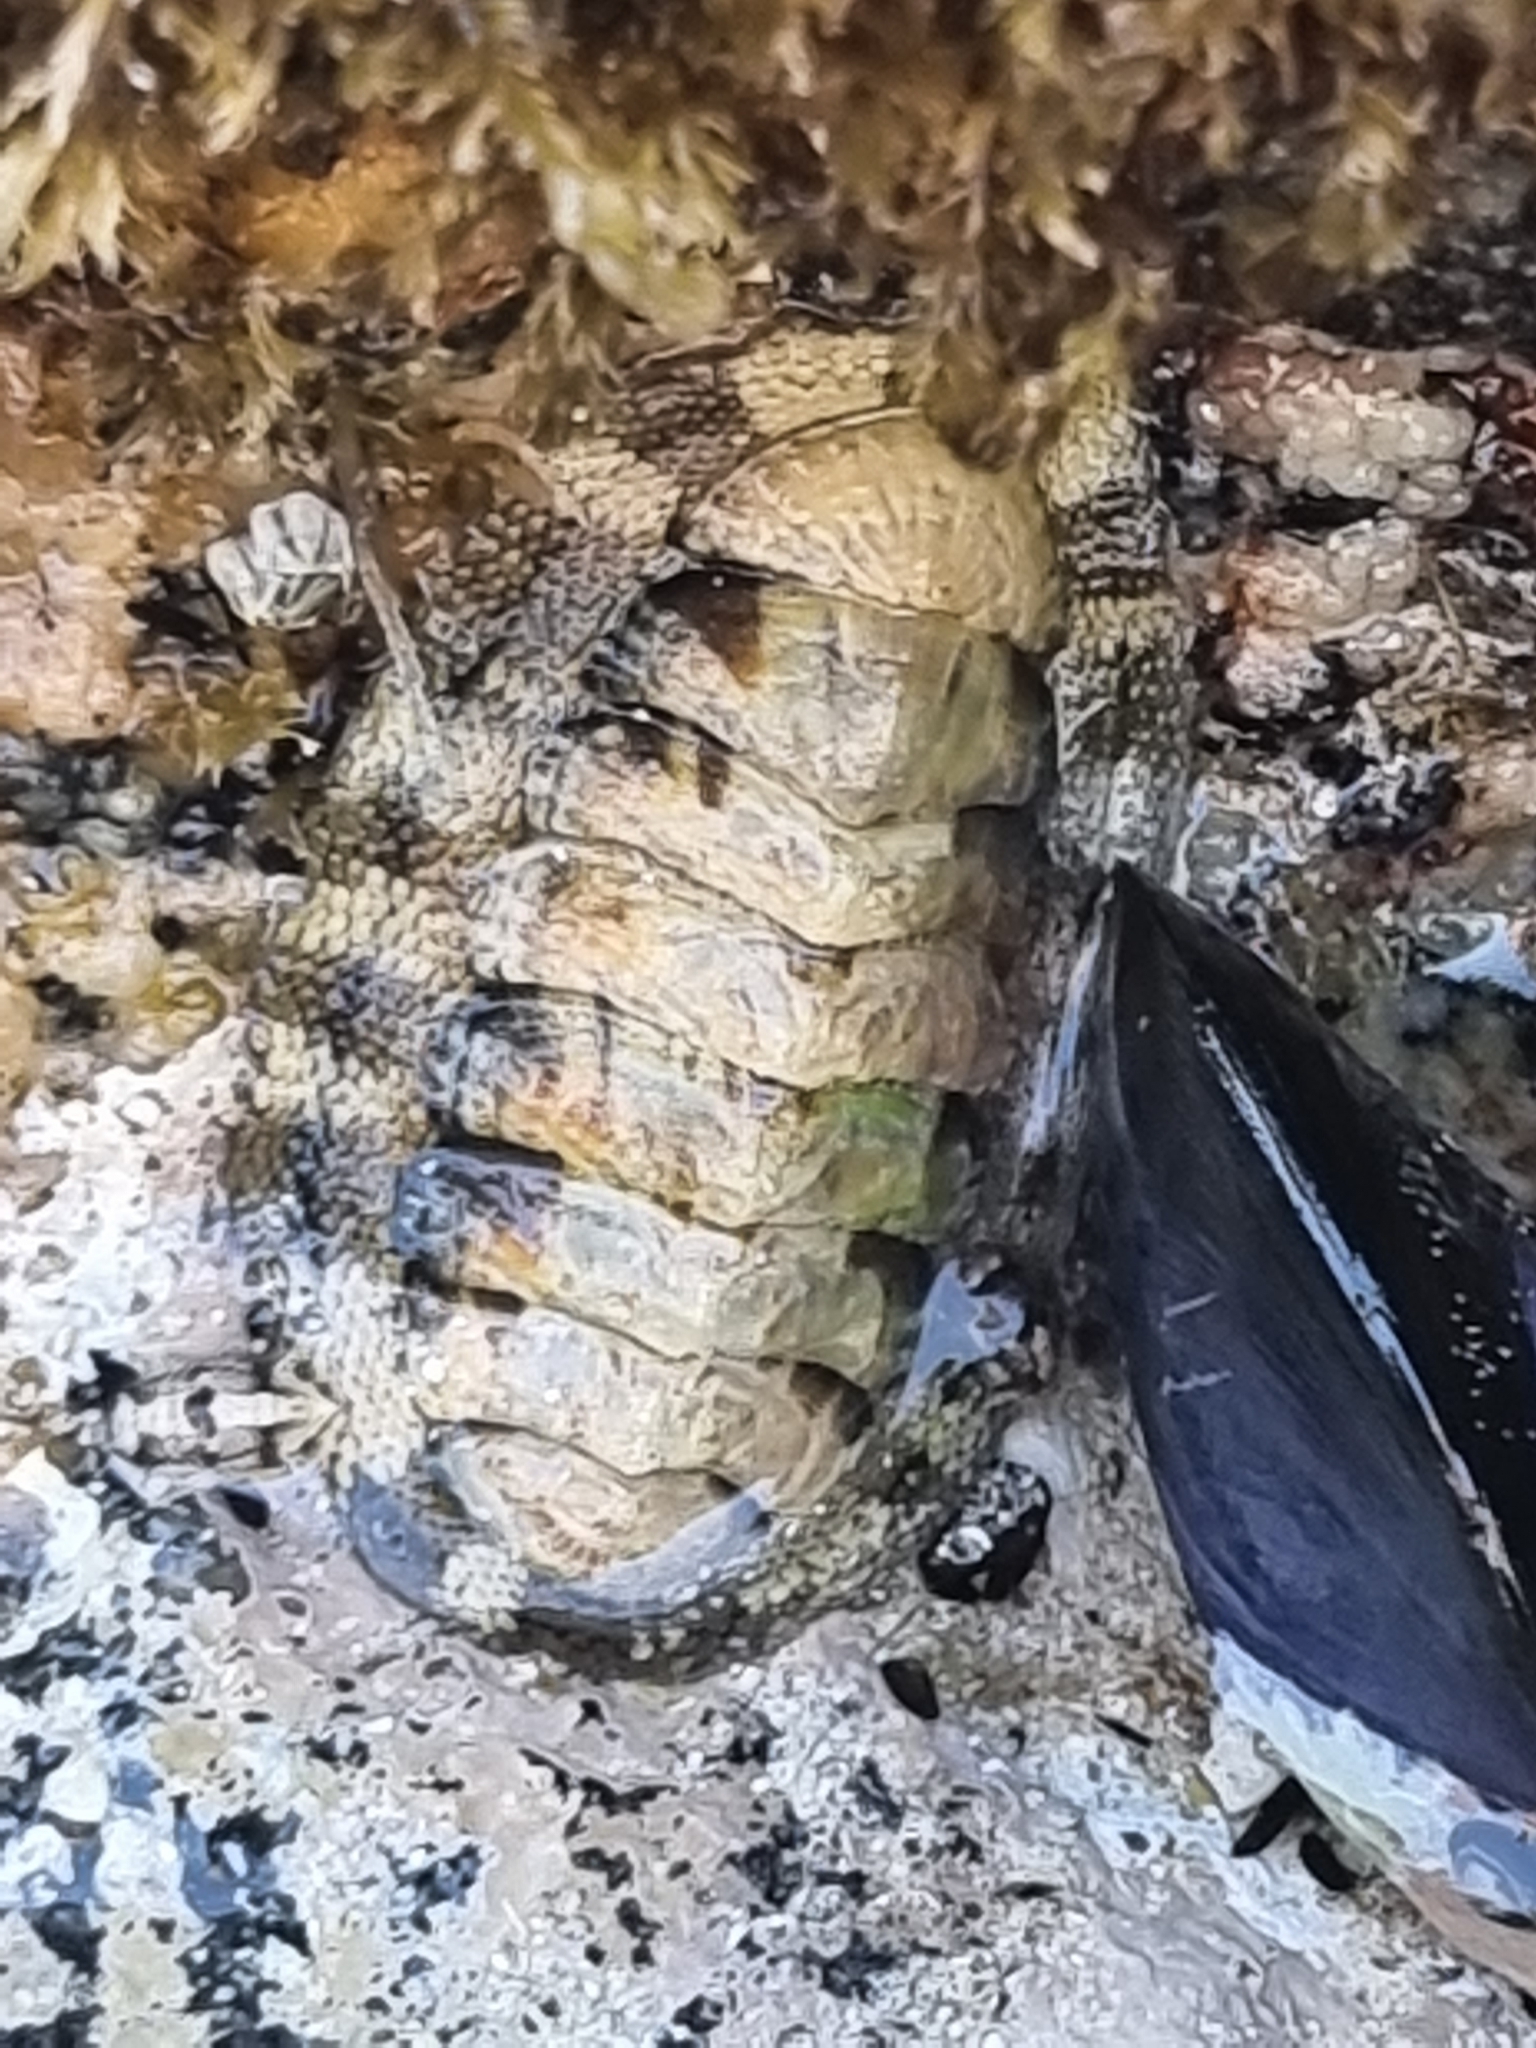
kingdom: Animalia
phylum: Mollusca
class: Polyplacophora
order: Chitonida
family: Chitonidae
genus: Sypharochiton
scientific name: Sypharochiton pelliserpentis
